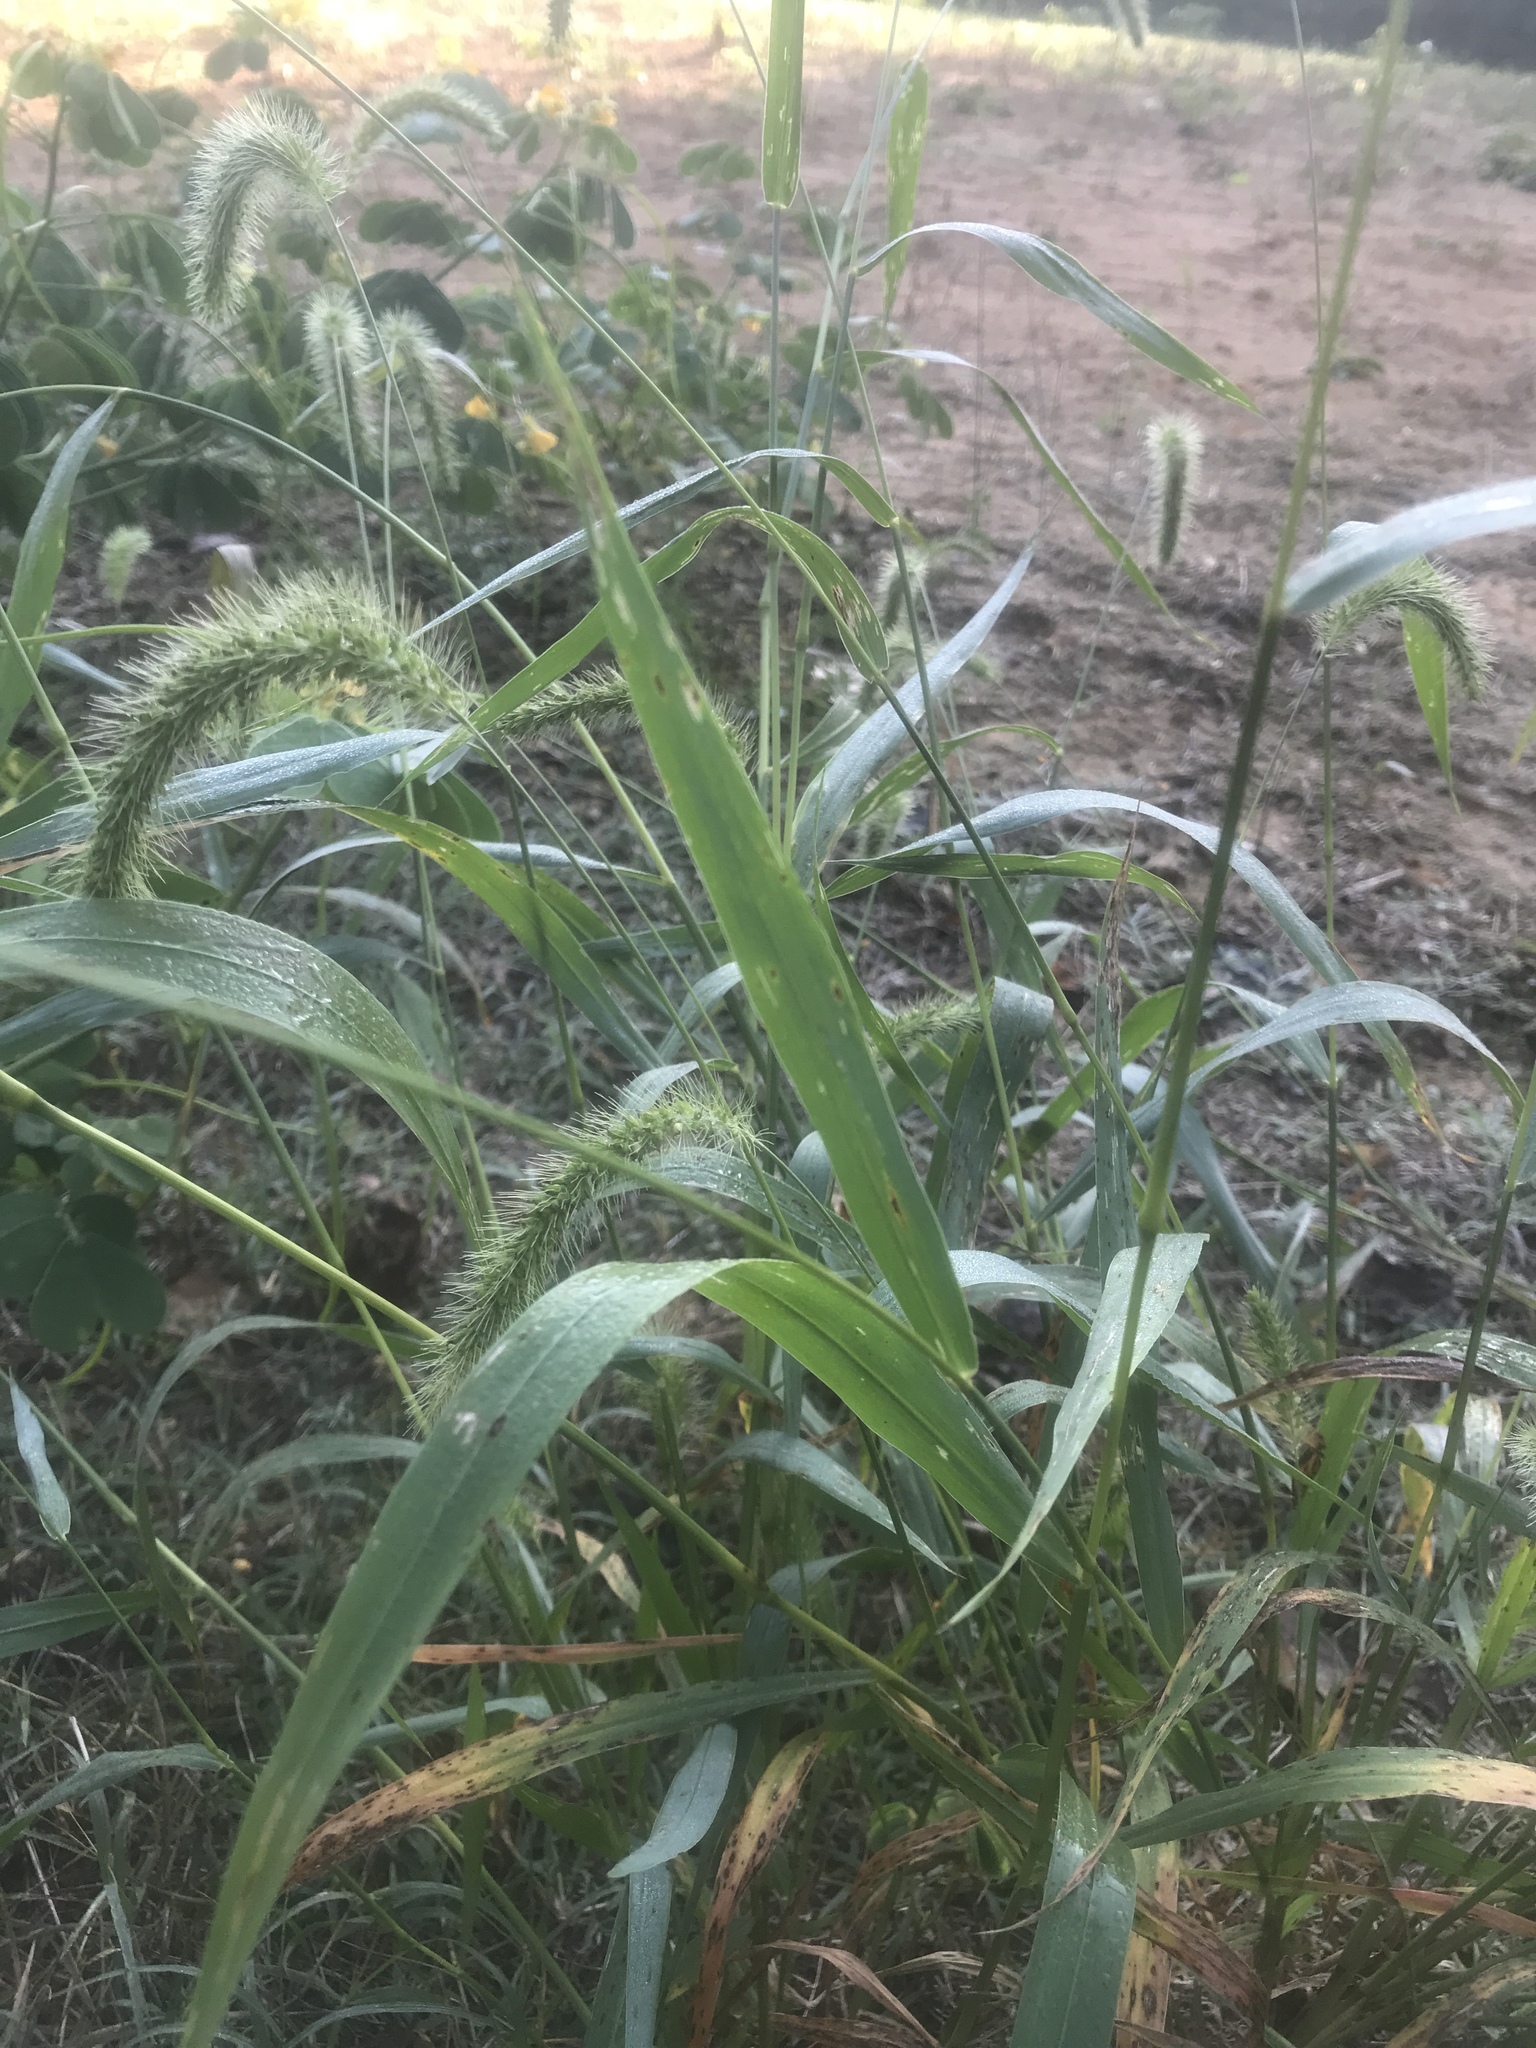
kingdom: Plantae
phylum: Tracheophyta
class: Liliopsida
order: Poales
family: Poaceae
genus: Setaria
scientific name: Setaria faberi
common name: Nodding bristle-grass
